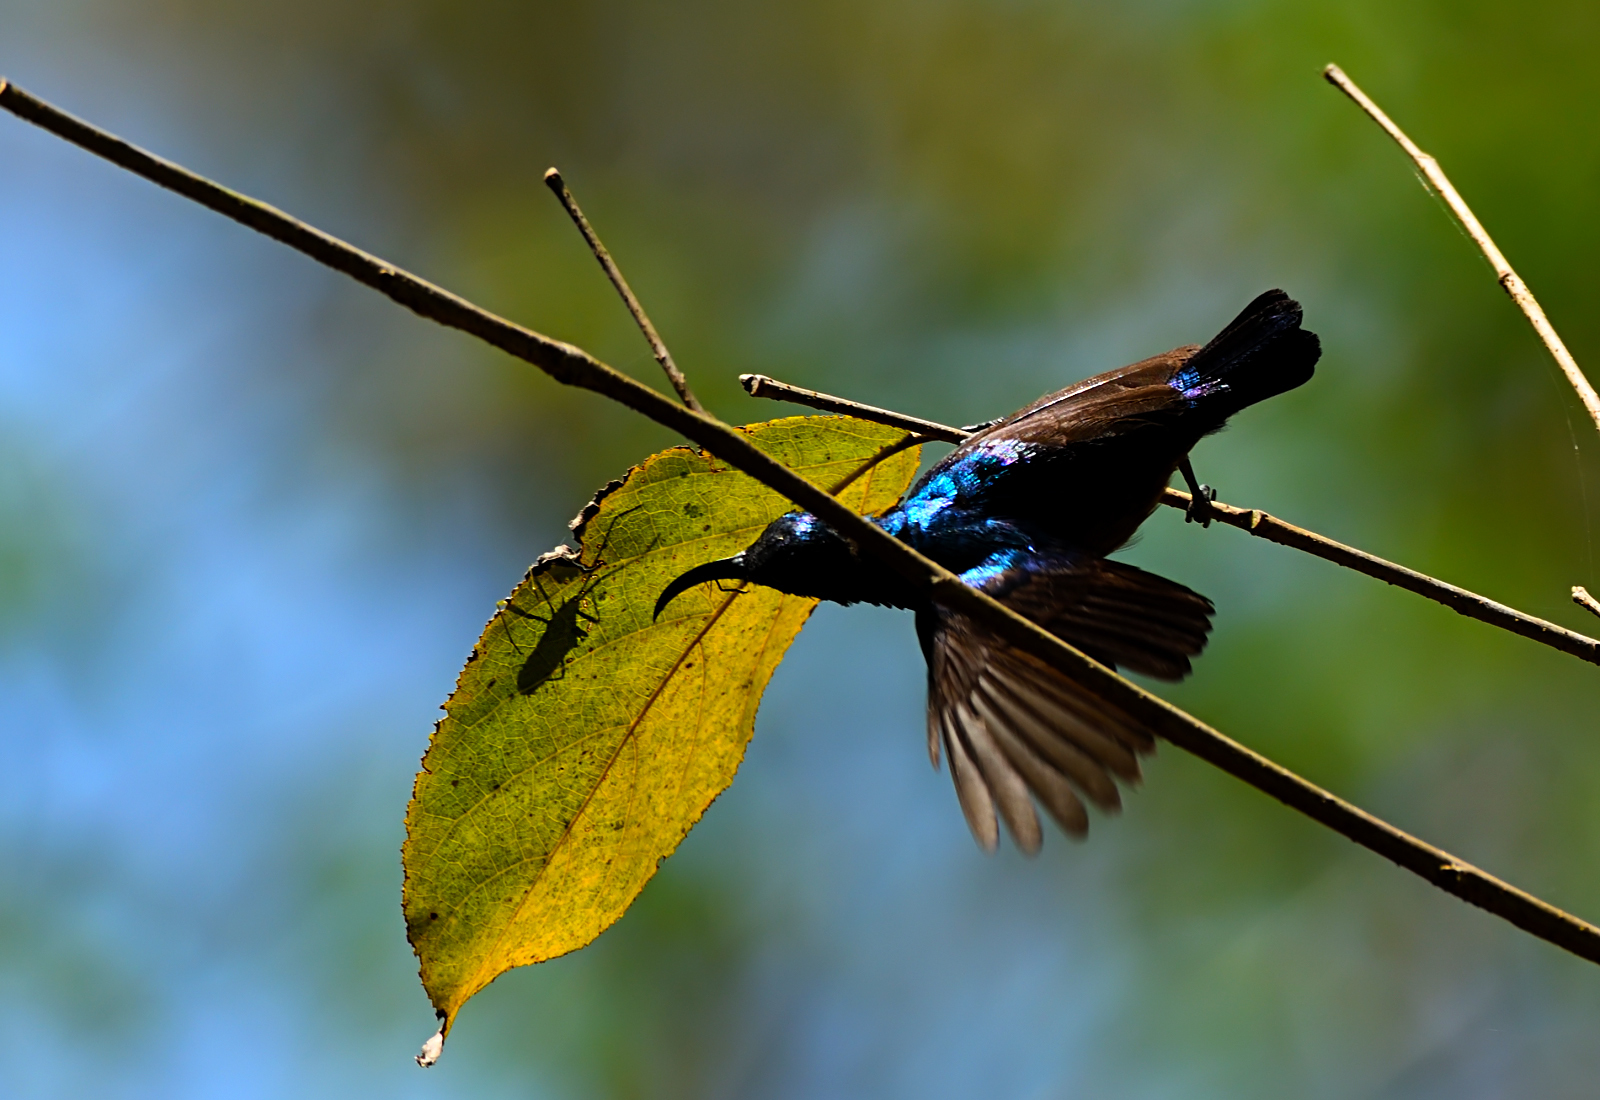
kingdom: Animalia
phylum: Chordata
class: Aves
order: Passeriformes
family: Nectariniidae
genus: Cinnyris
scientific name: Cinnyris lotenius
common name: Loten's sunbird
